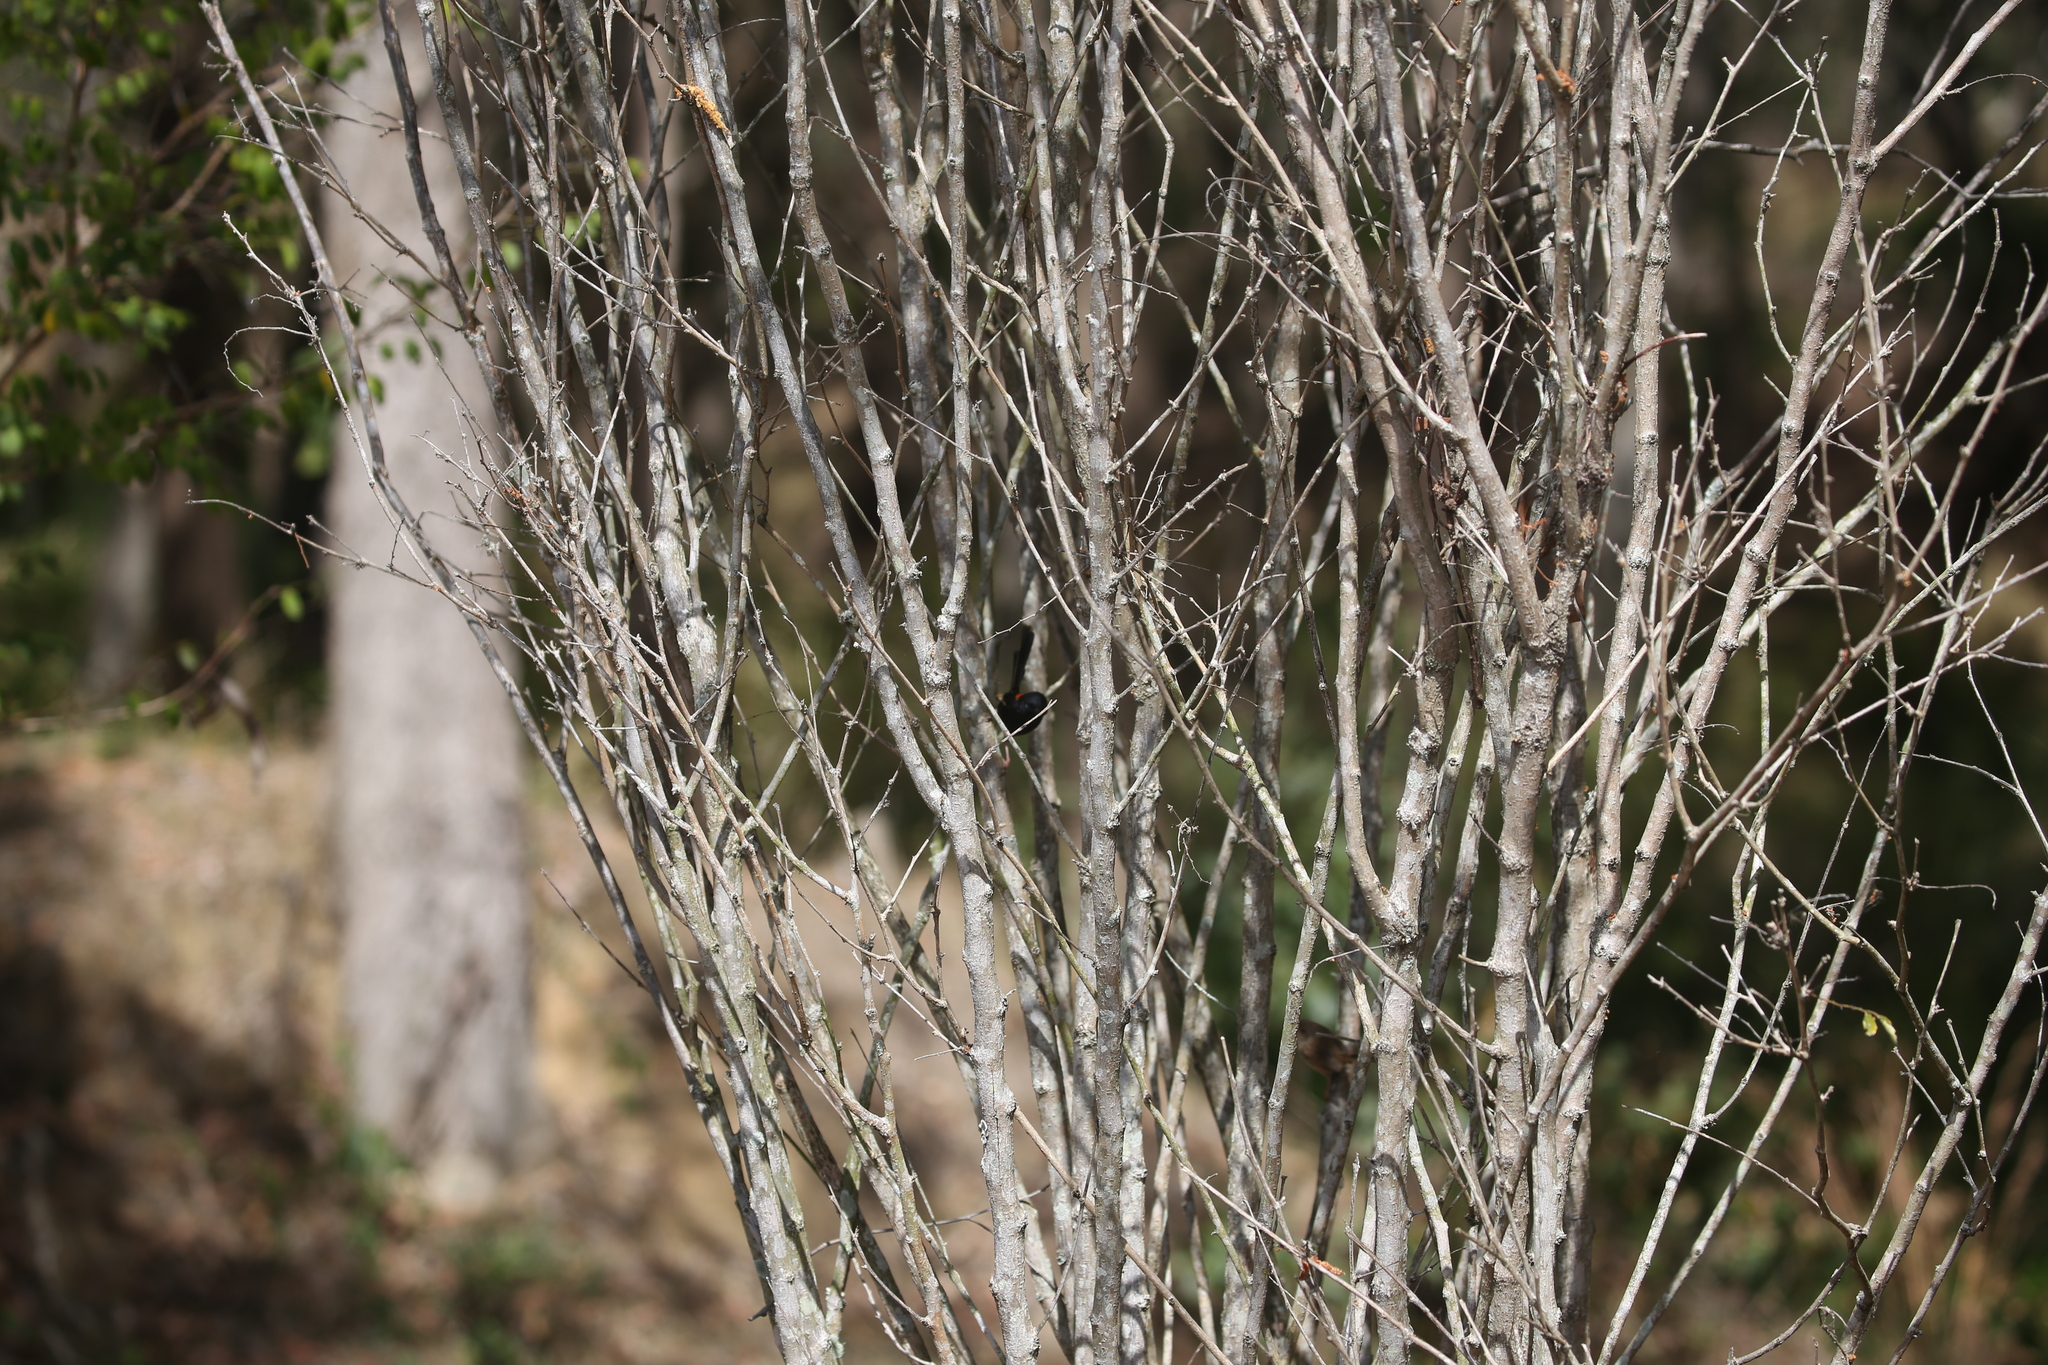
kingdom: Animalia
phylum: Chordata
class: Aves
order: Passeriformes
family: Maluridae
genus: Malurus
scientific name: Malurus melanocephalus
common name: Red-backed fairywren
